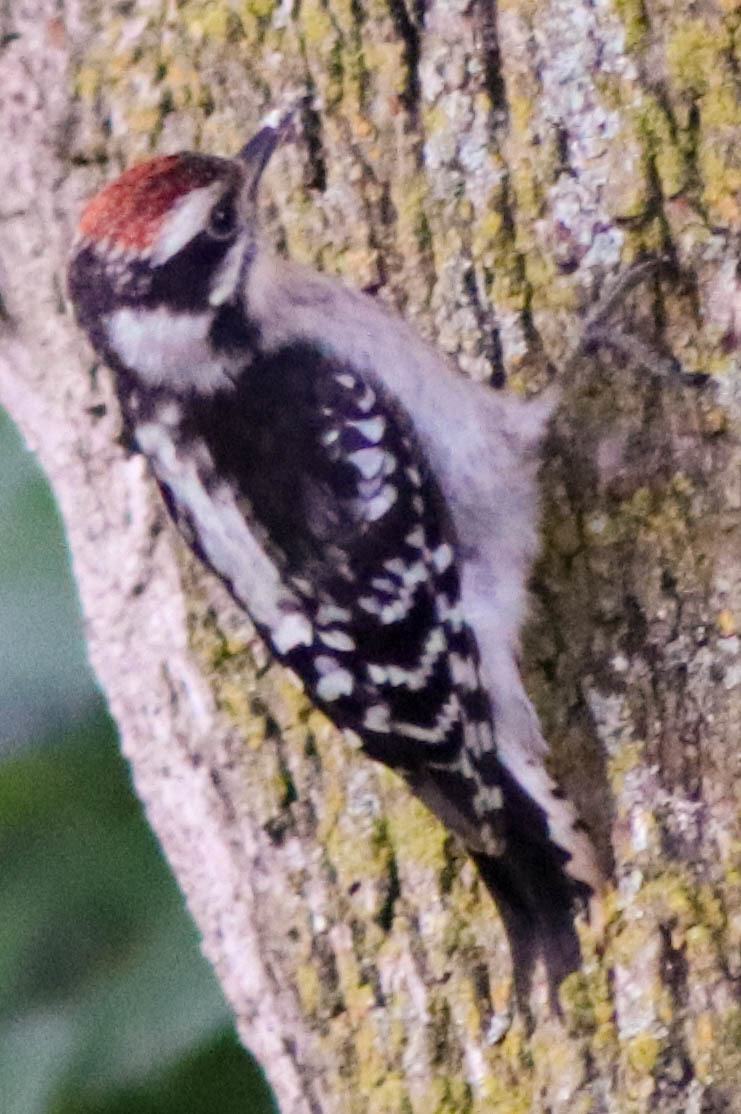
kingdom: Animalia
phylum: Chordata
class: Aves
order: Piciformes
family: Picidae
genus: Dryobates
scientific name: Dryobates pubescens
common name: Downy woodpecker
